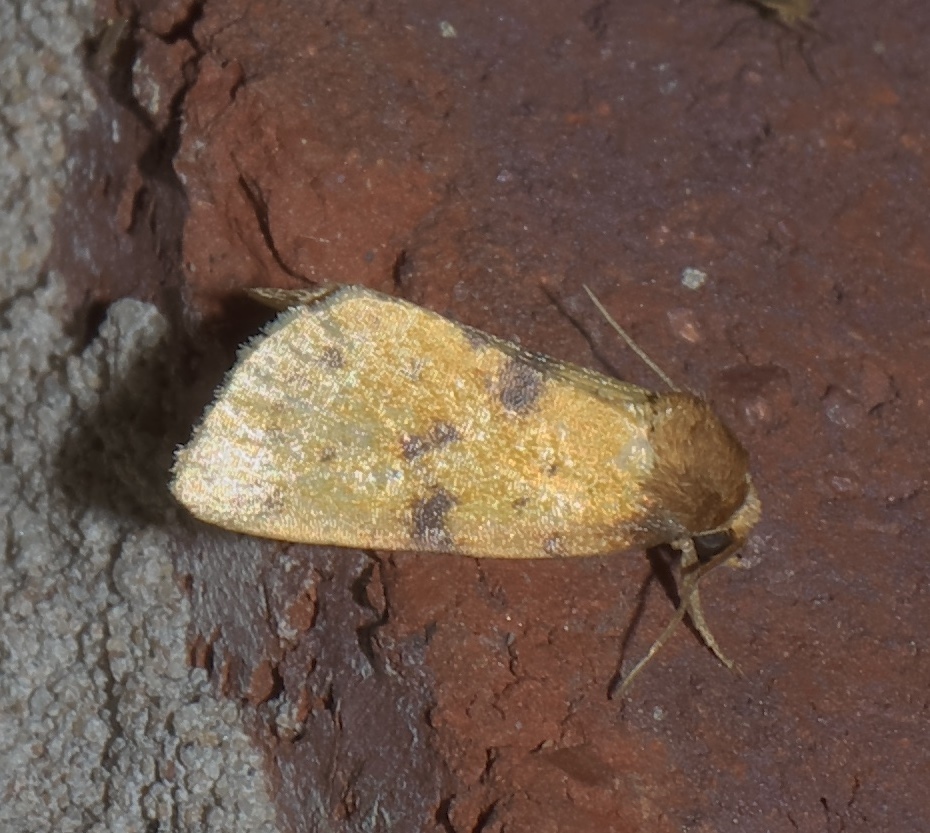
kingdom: Animalia
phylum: Arthropoda
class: Insecta
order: Lepidoptera
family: Noctuidae
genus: Azenia
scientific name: Azenia obtusa
